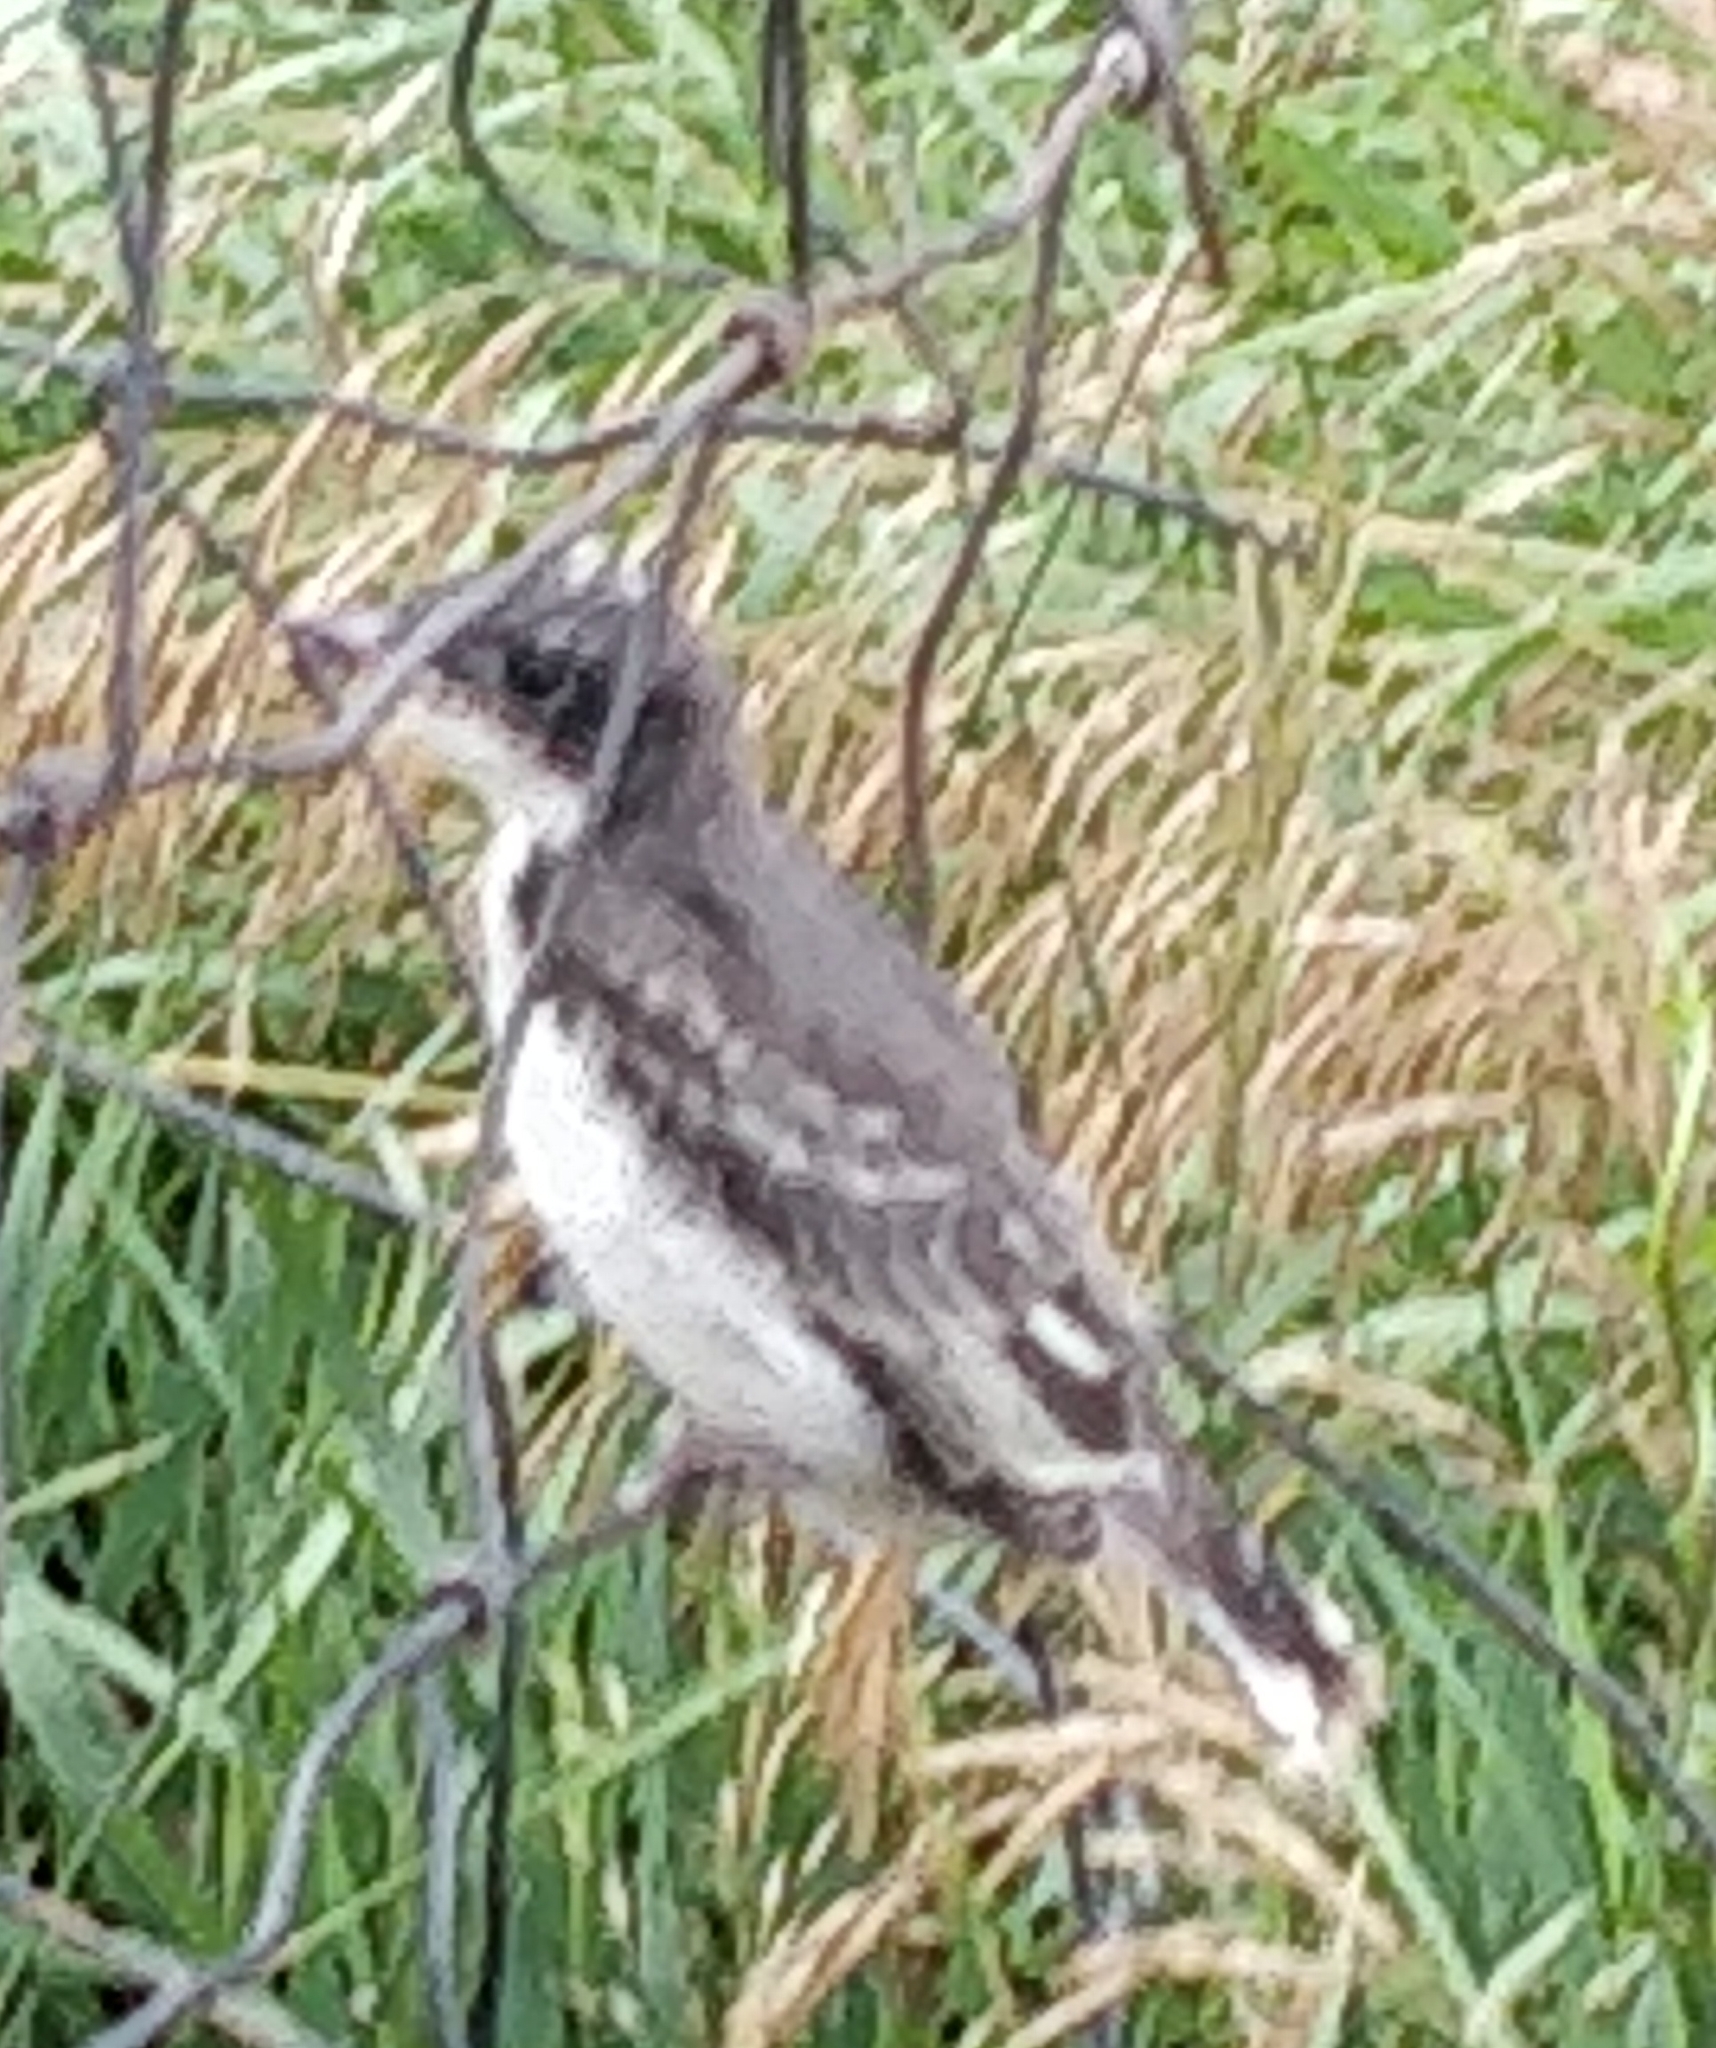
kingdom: Animalia
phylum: Chordata
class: Aves
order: Passeriformes
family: Tyrannidae
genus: Tyrannus
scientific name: Tyrannus tyrannus
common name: Eastern kingbird
